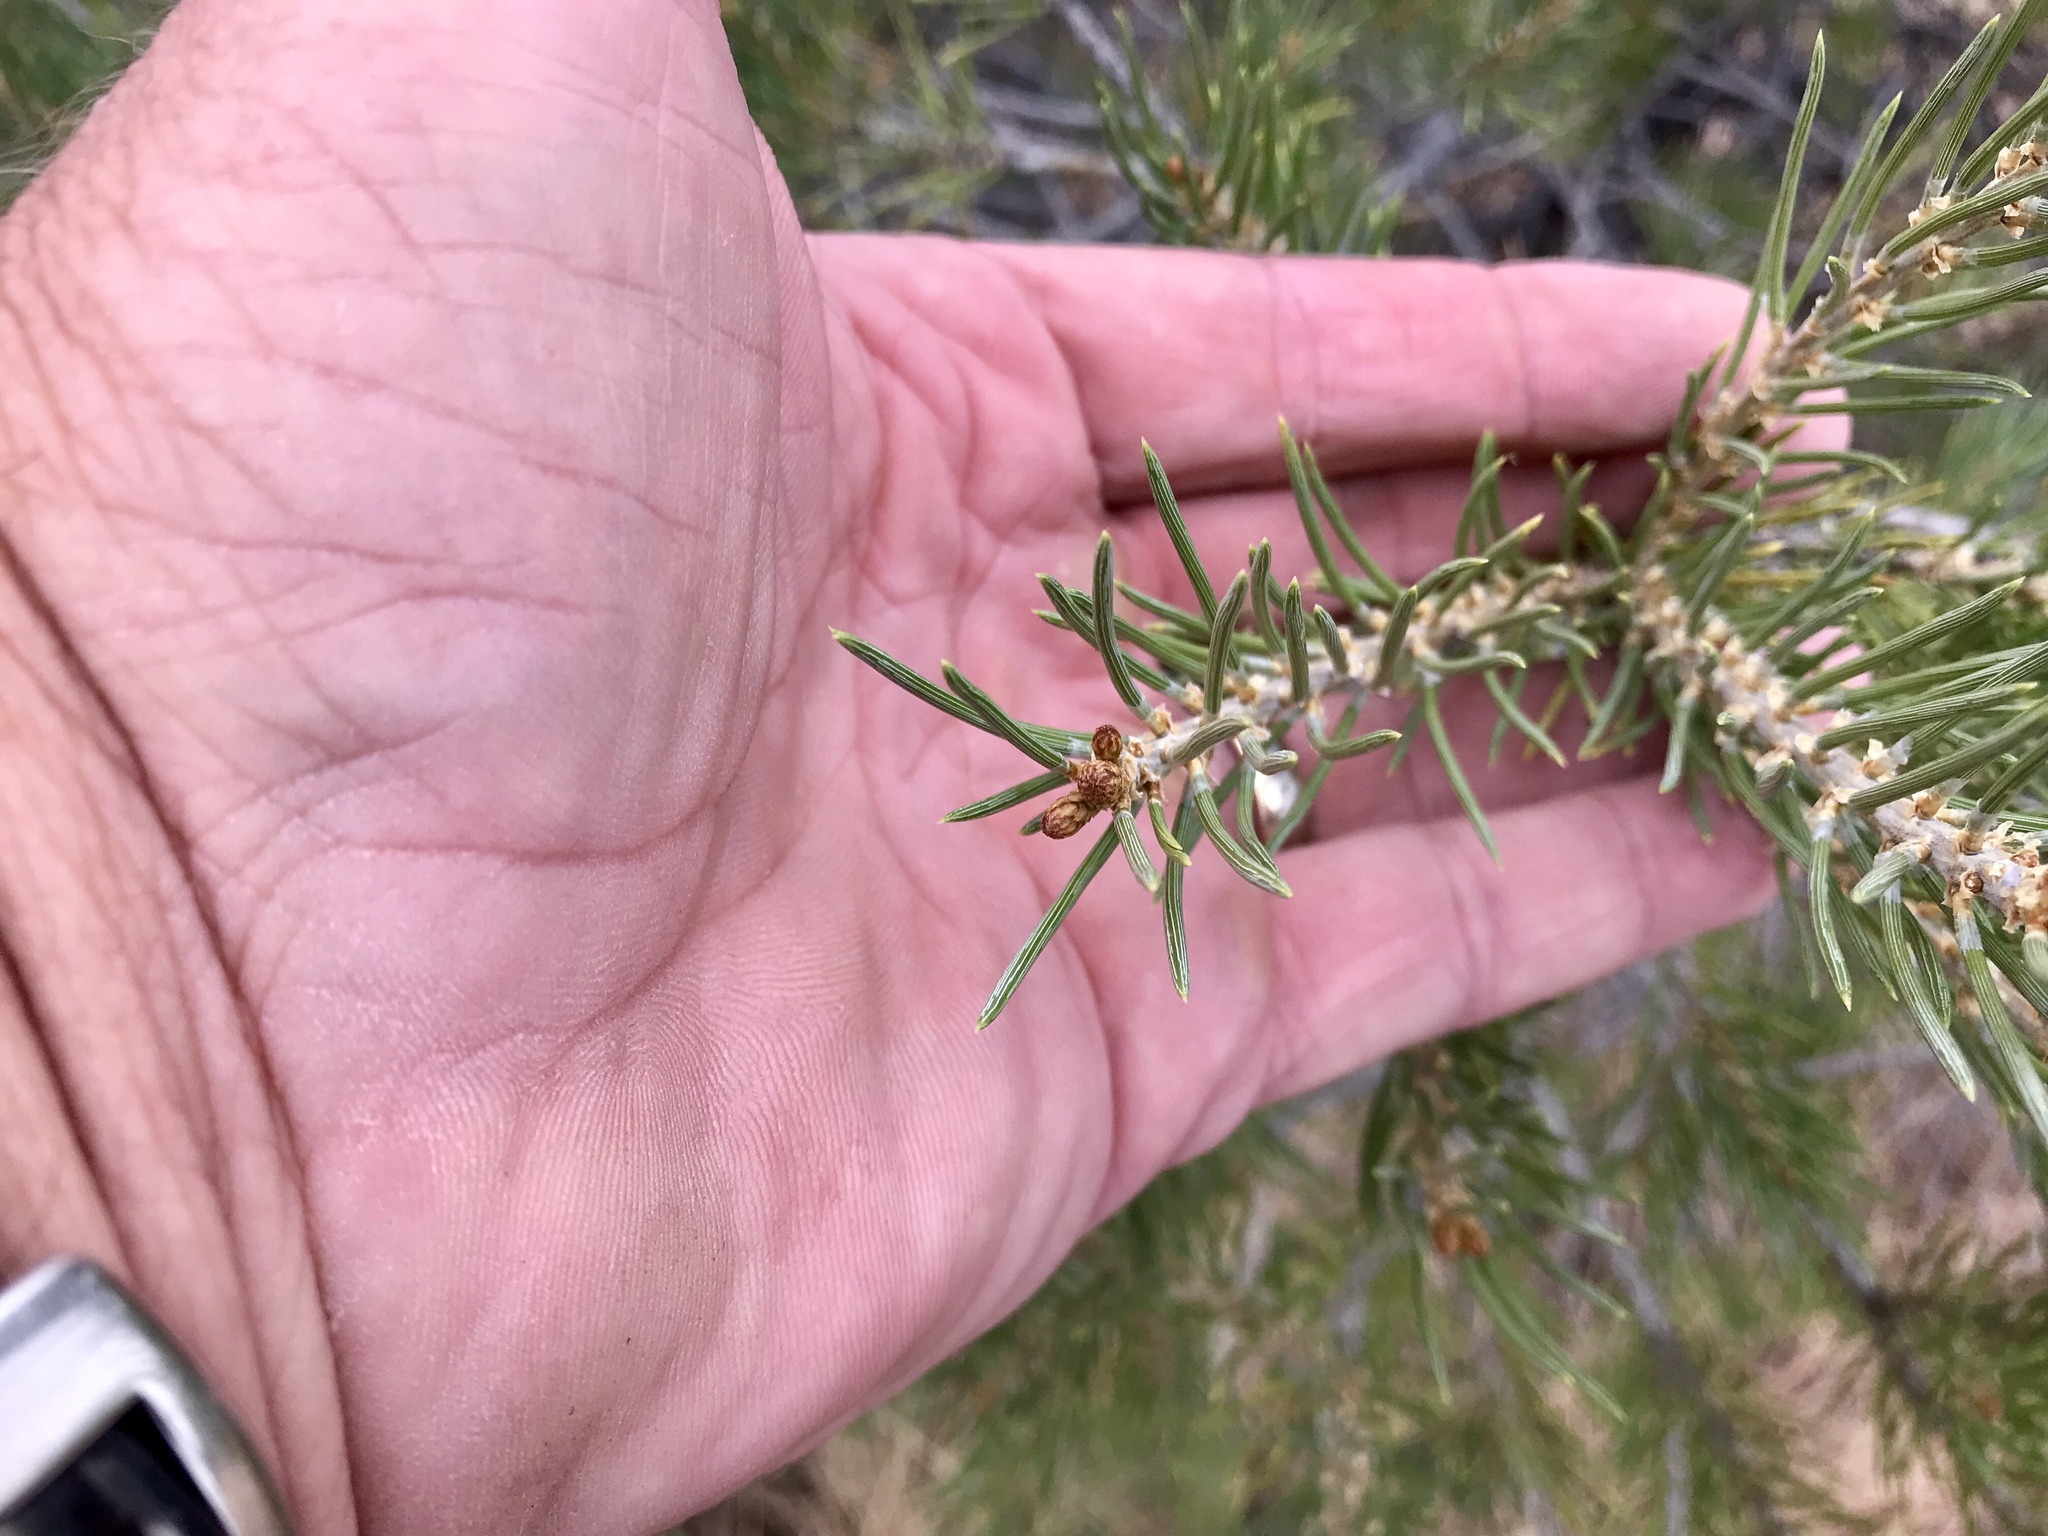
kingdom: Plantae
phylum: Tracheophyta
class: Pinopsida
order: Pinales
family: Pinaceae
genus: Pinus
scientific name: Pinus monophylla
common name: One-leaved nut pine
